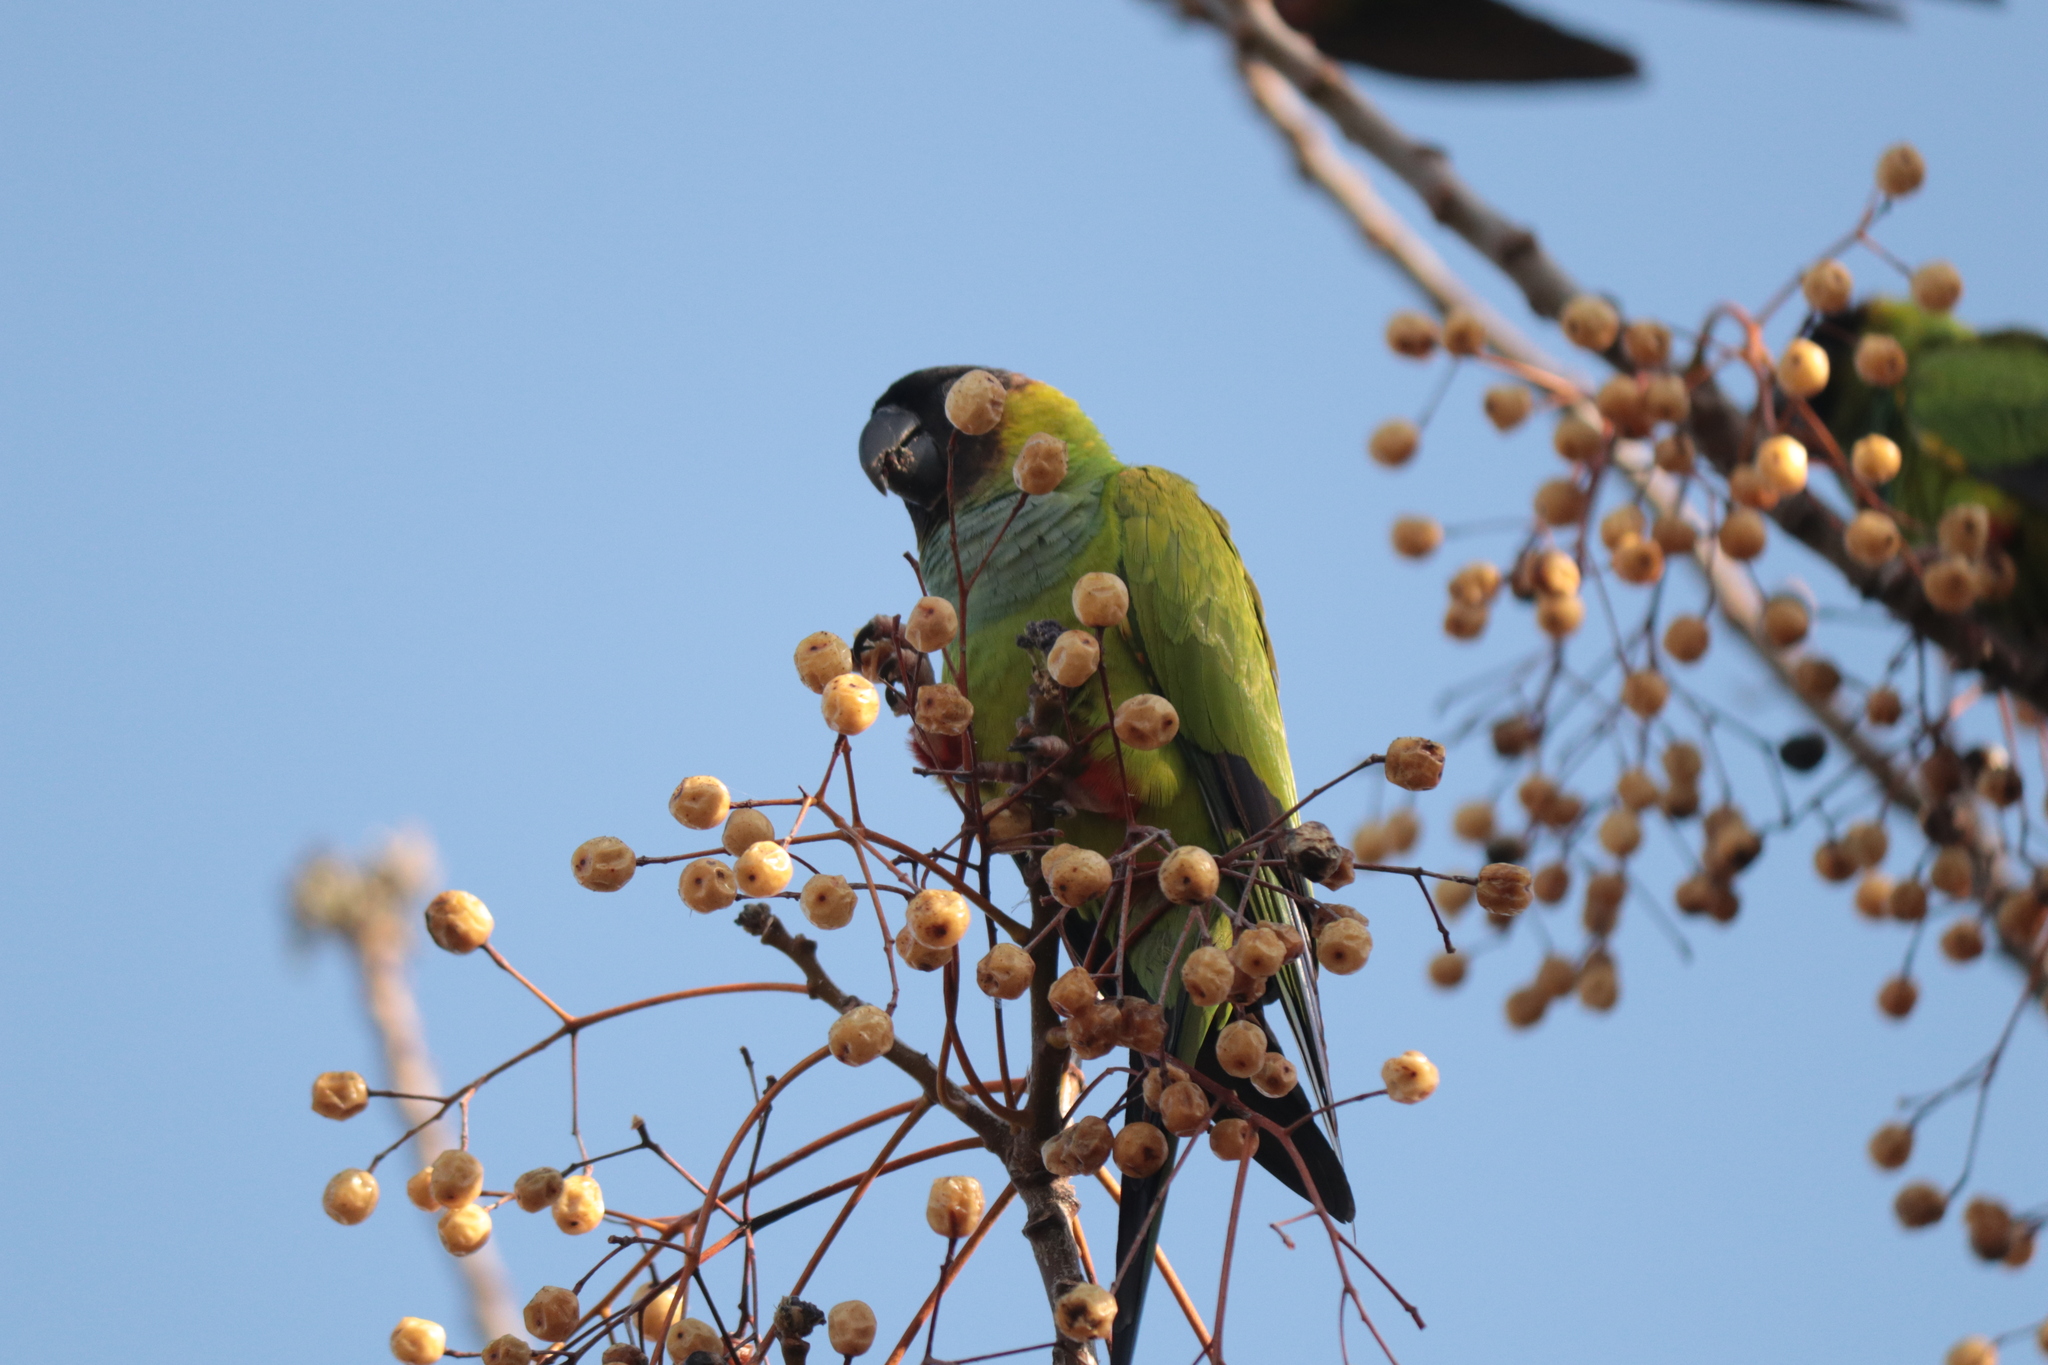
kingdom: Animalia
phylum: Chordata
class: Aves
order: Psittaciformes
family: Psittacidae
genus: Nandayus
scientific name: Nandayus nenday
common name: Nanday parakeet
